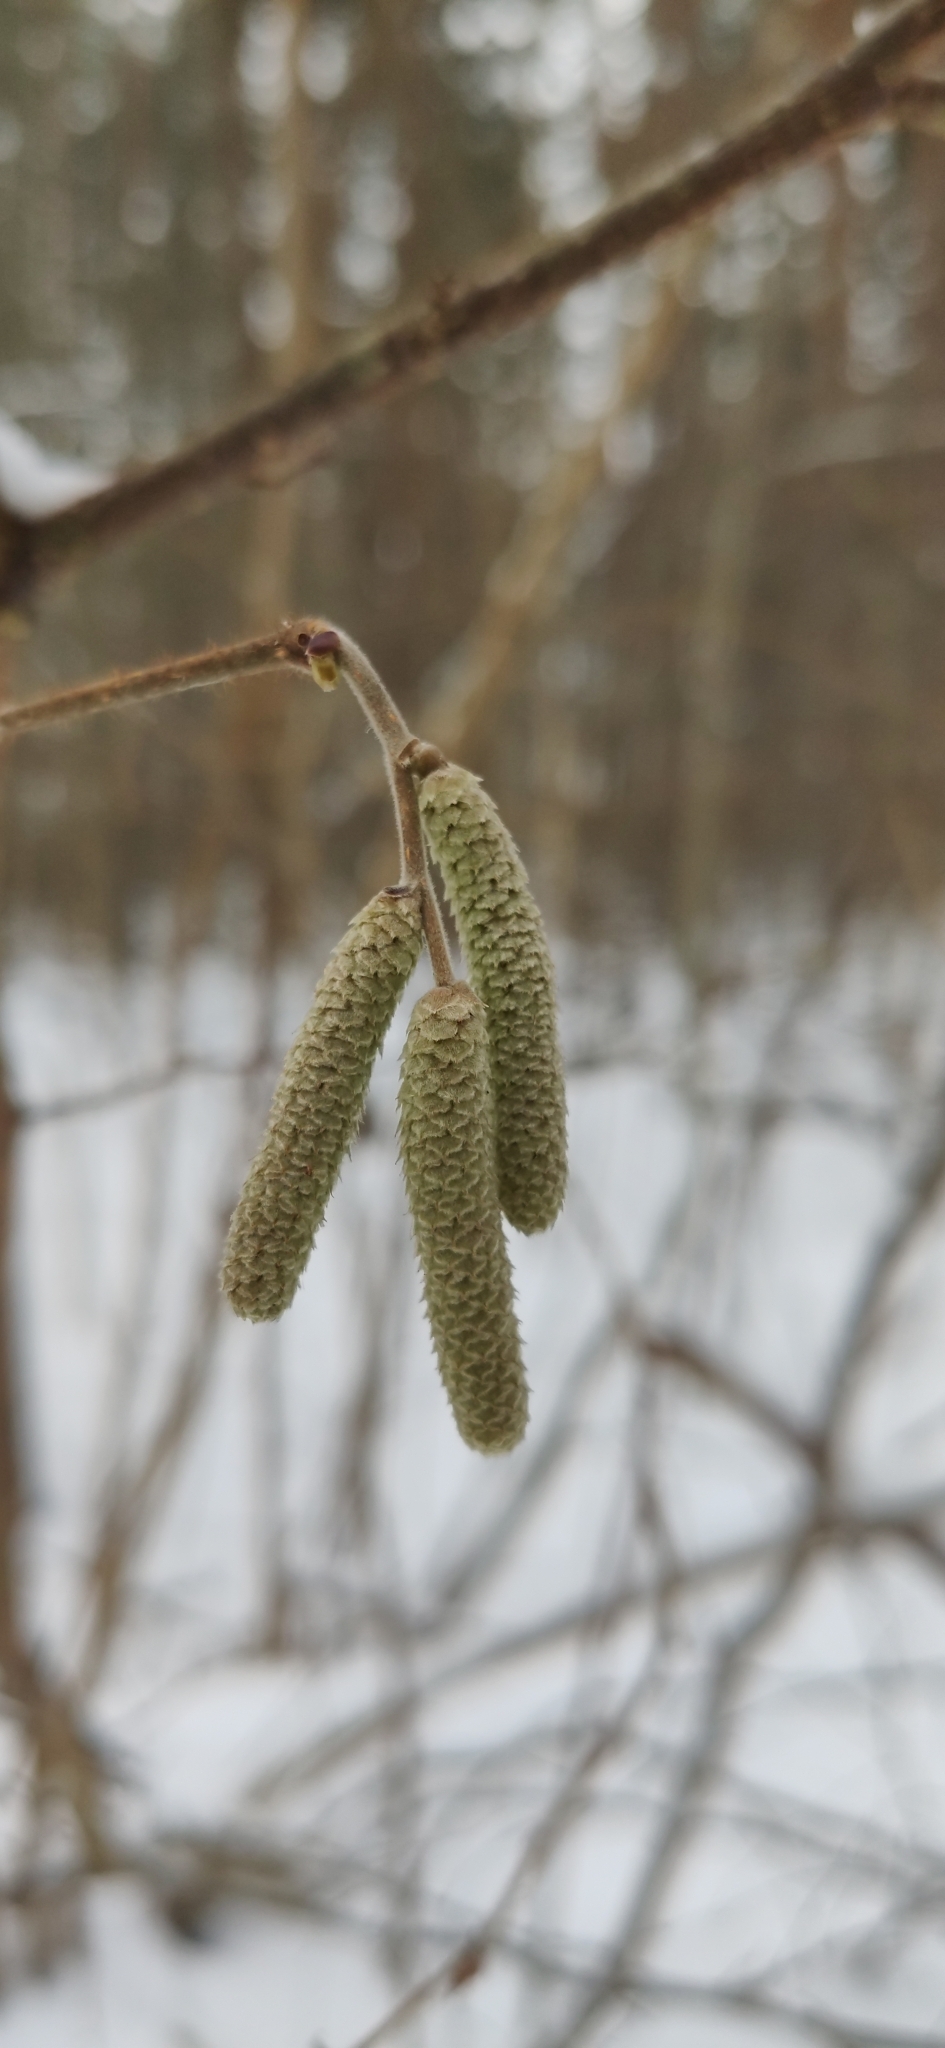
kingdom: Plantae
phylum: Tracheophyta
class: Magnoliopsida
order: Fagales
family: Betulaceae
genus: Corylus
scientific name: Corylus avellana
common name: European hazel
